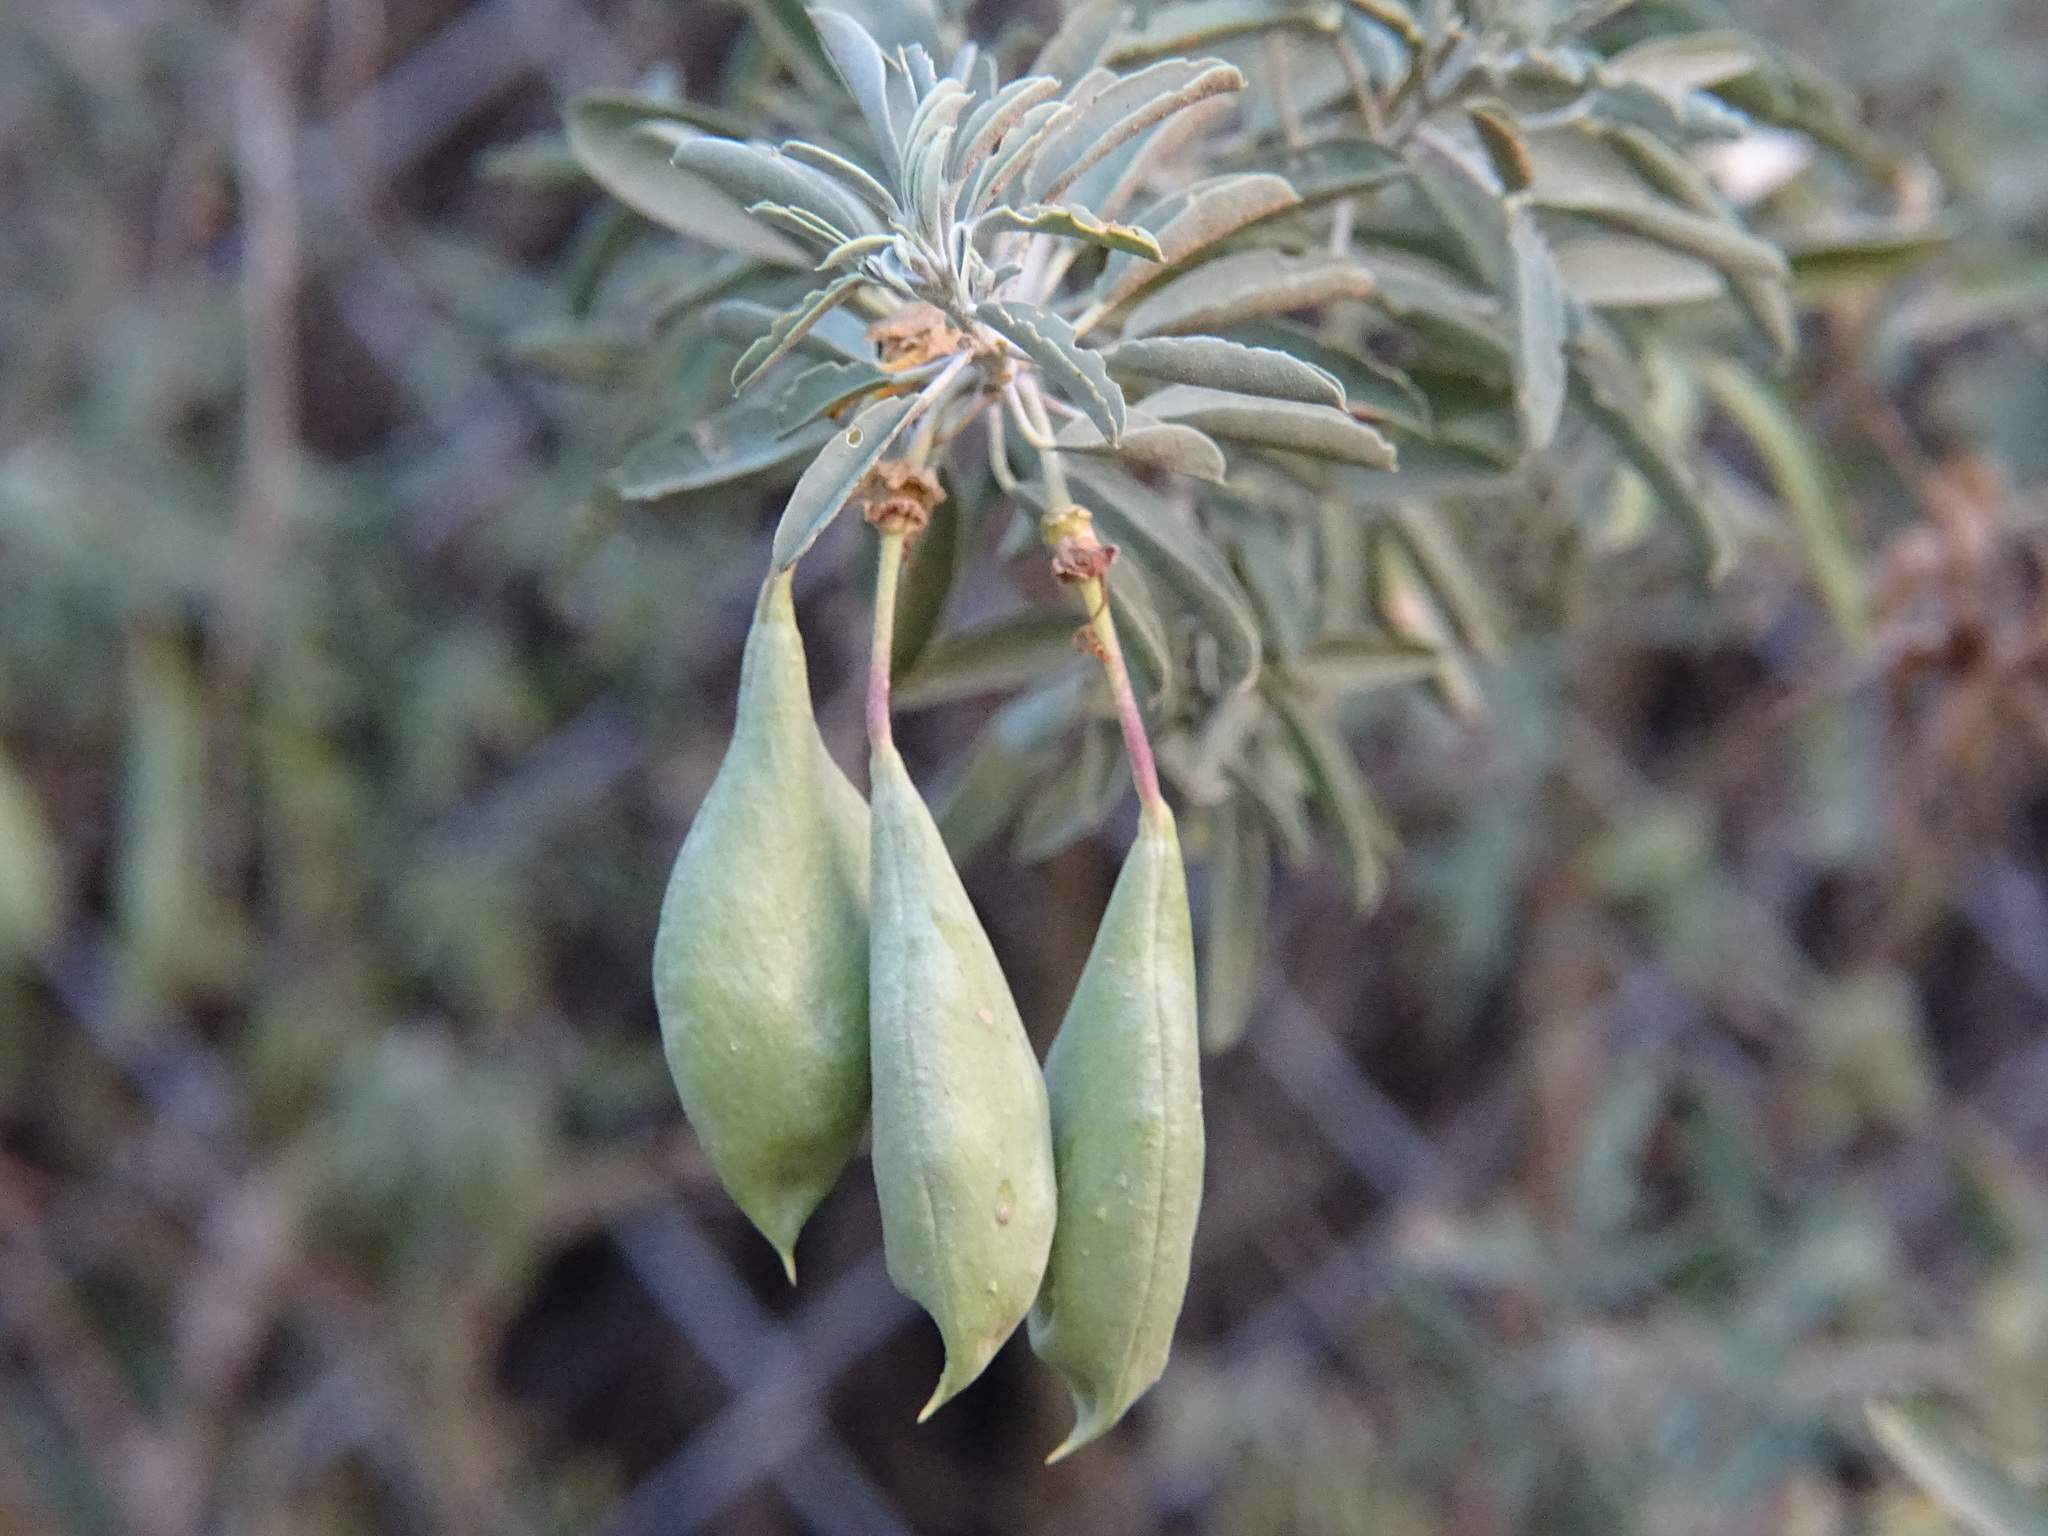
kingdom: Plantae
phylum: Tracheophyta
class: Magnoliopsida
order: Brassicales
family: Cleomaceae
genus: Cleomella
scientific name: Cleomella arborea
